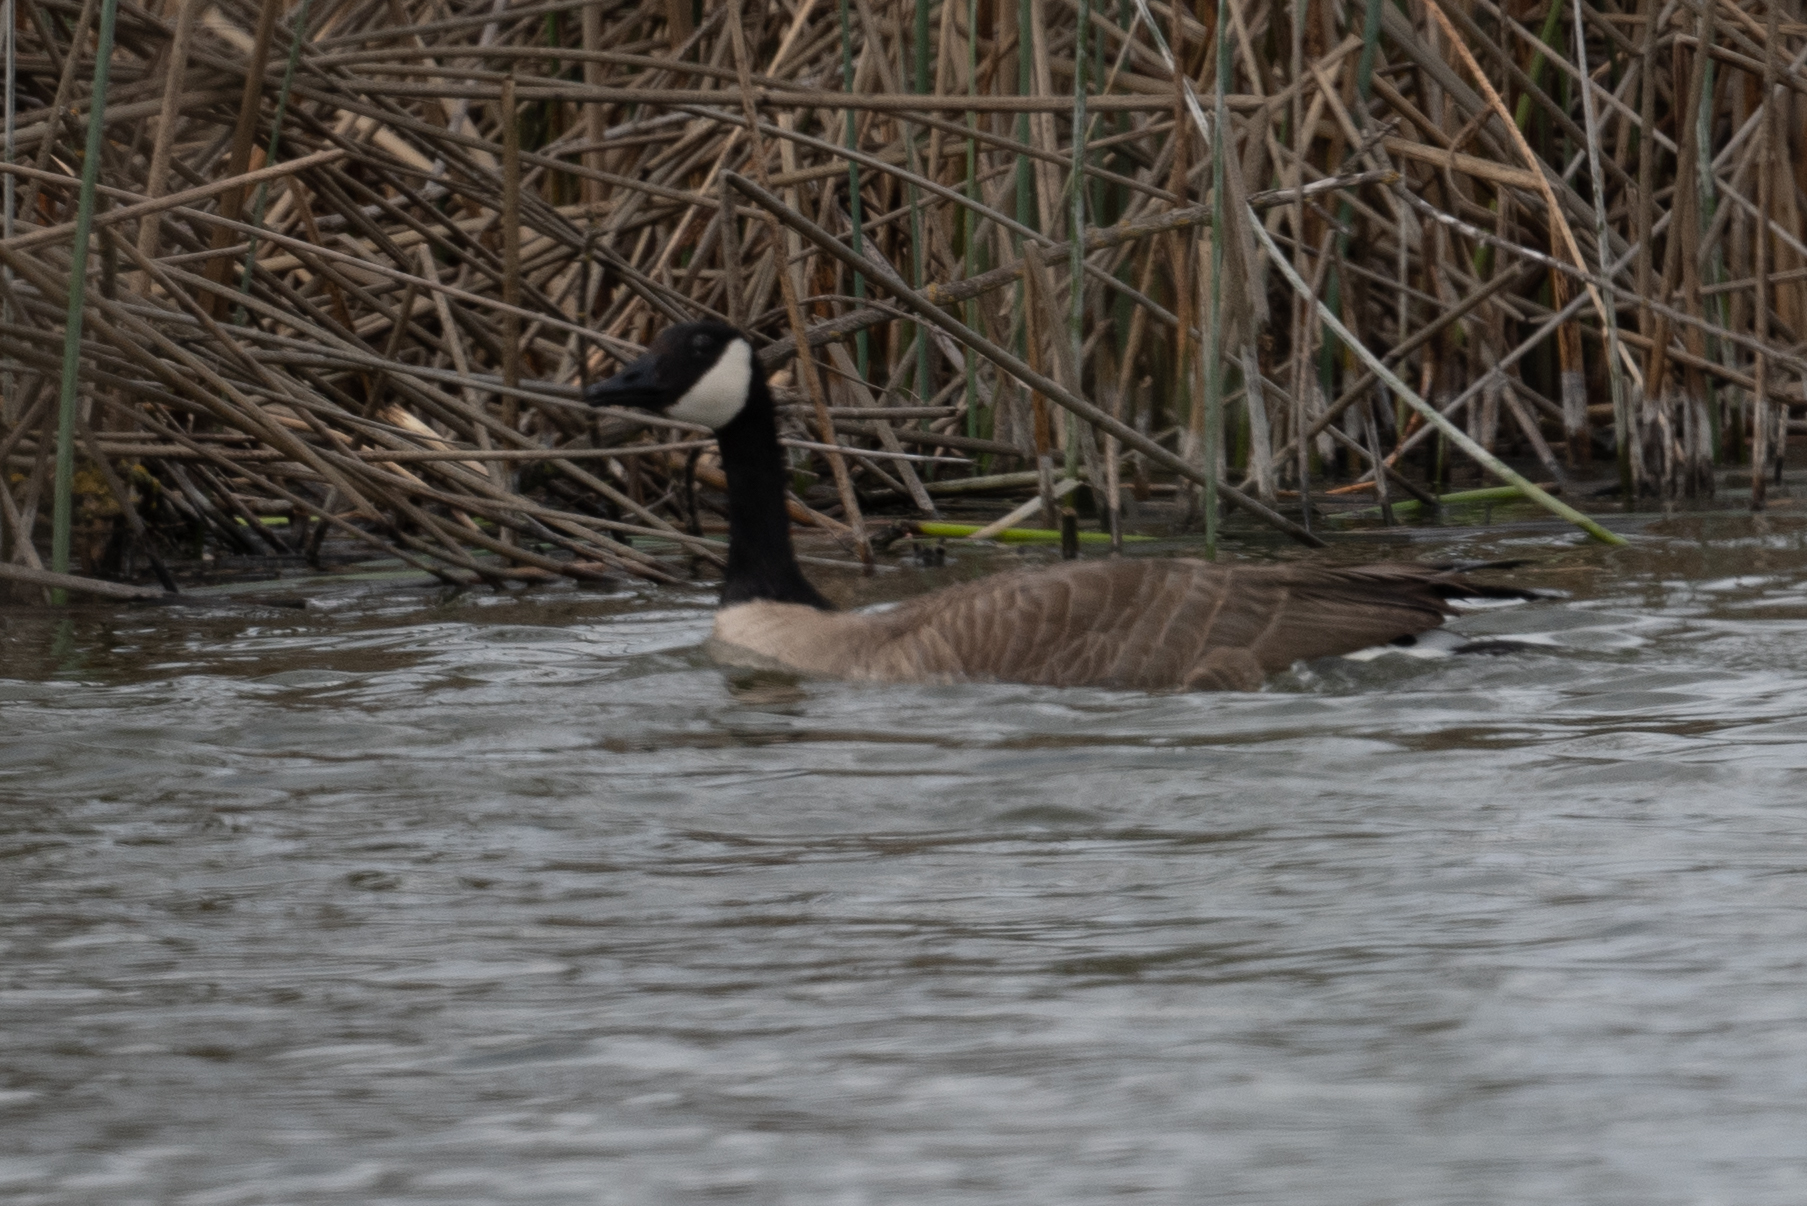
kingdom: Animalia
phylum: Chordata
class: Aves
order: Anseriformes
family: Anatidae
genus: Branta
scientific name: Branta canadensis
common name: Canada goose
